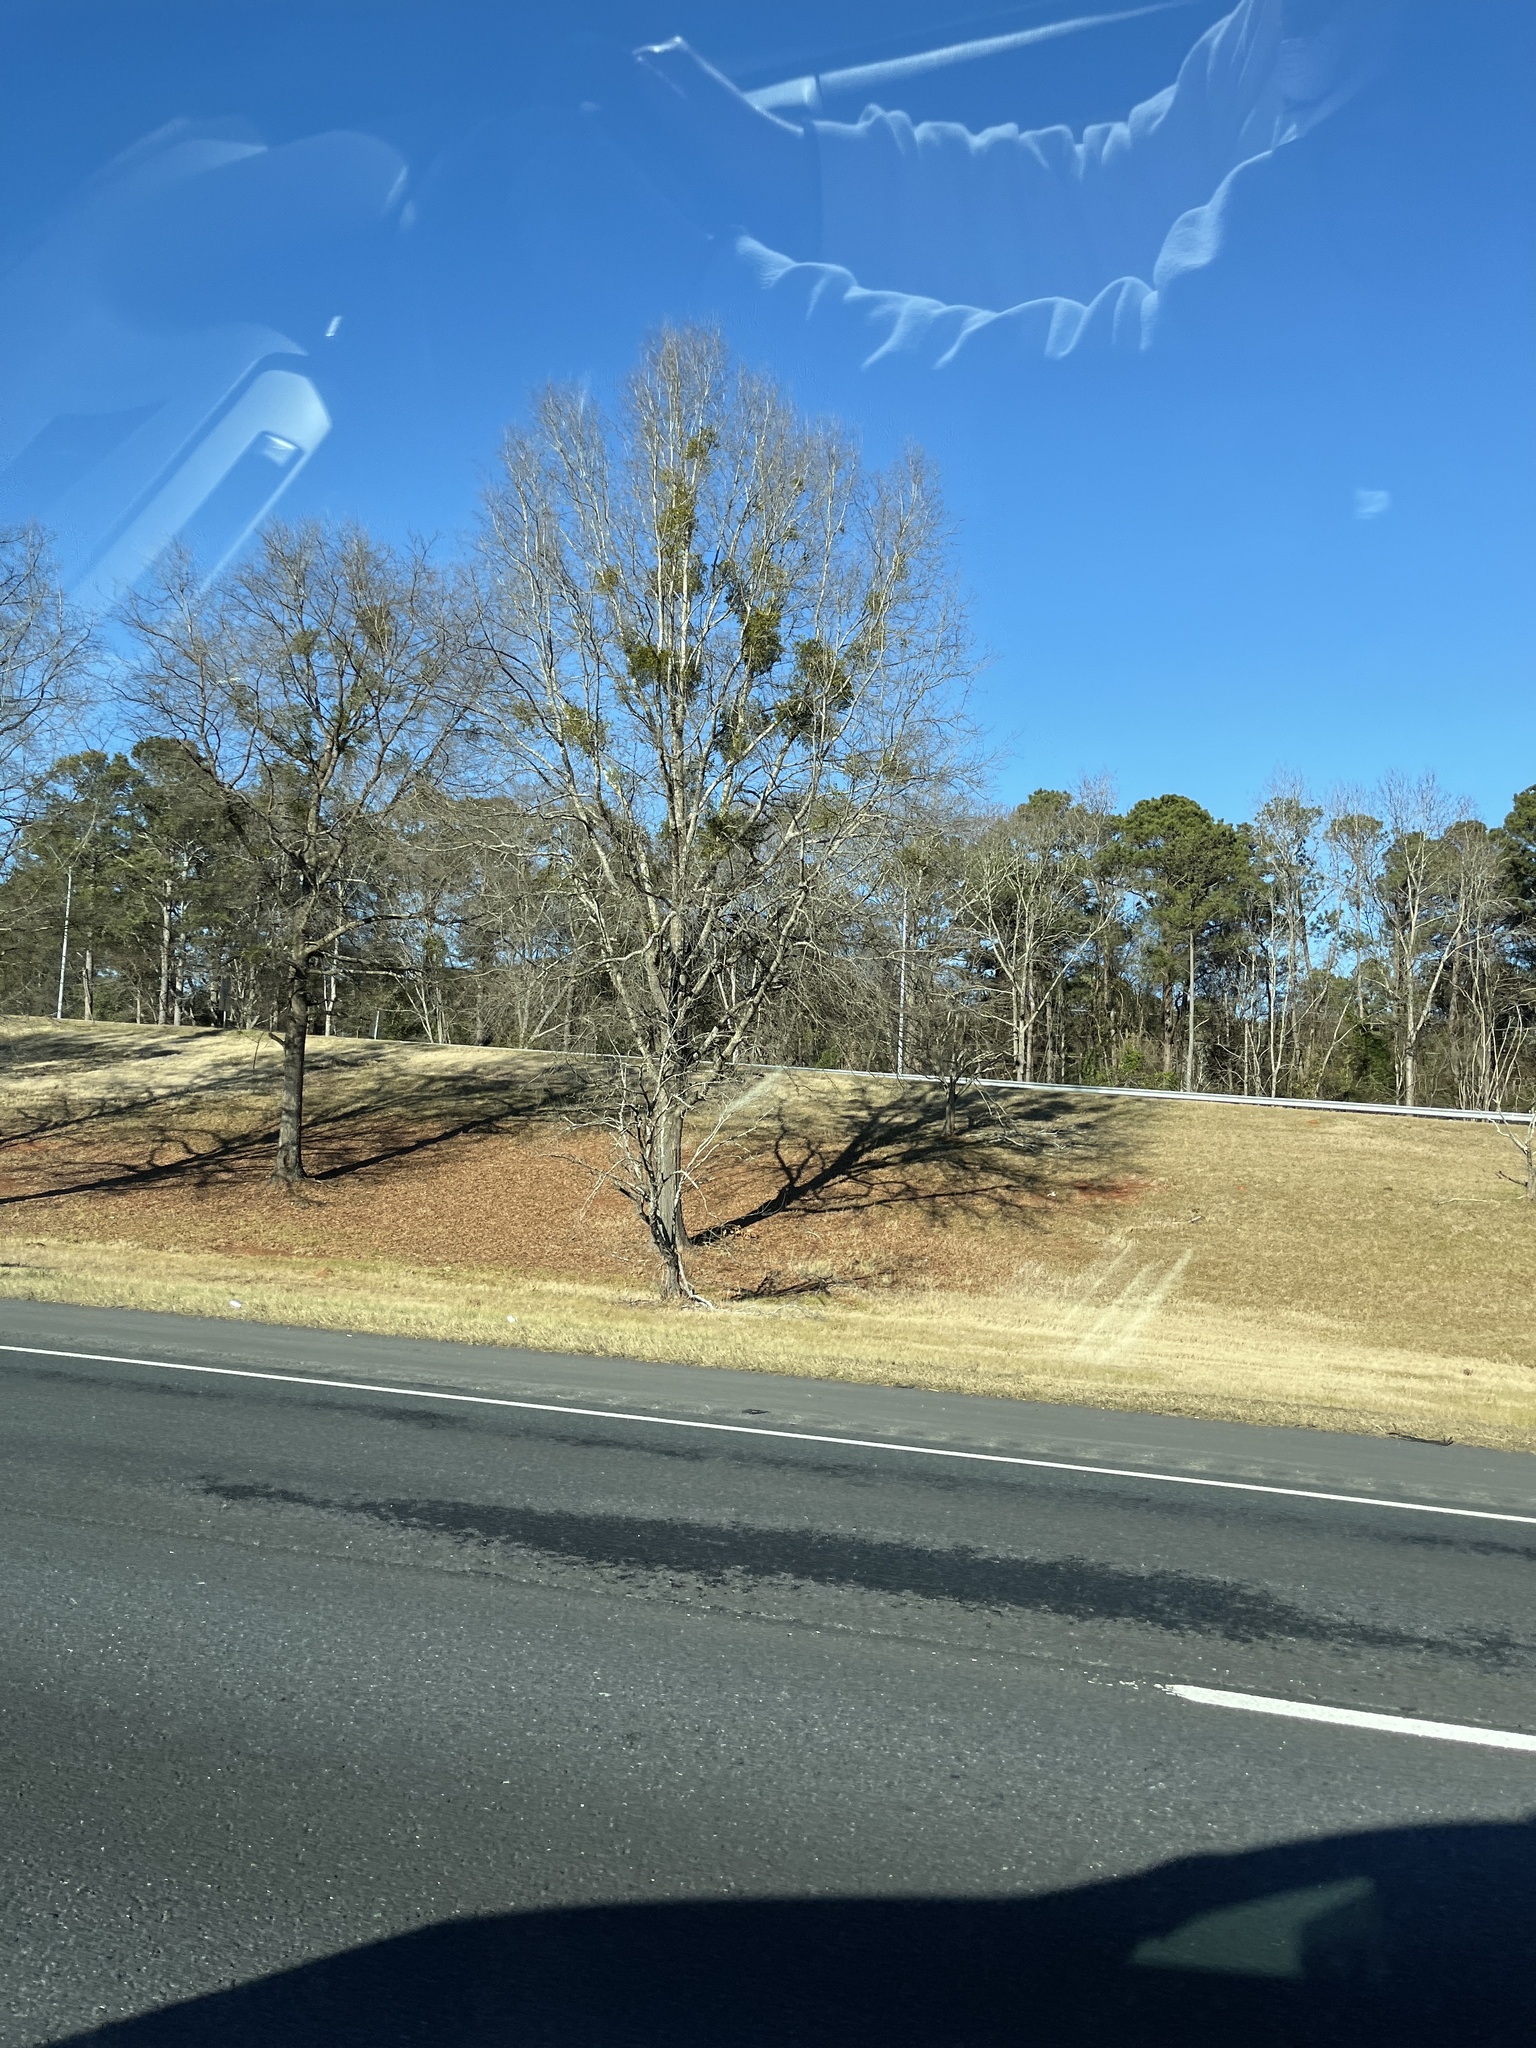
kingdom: Plantae
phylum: Tracheophyta
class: Magnoliopsida
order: Santalales
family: Viscaceae
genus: Phoradendron
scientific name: Phoradendron leucarpum
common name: Pacific mistletoe
